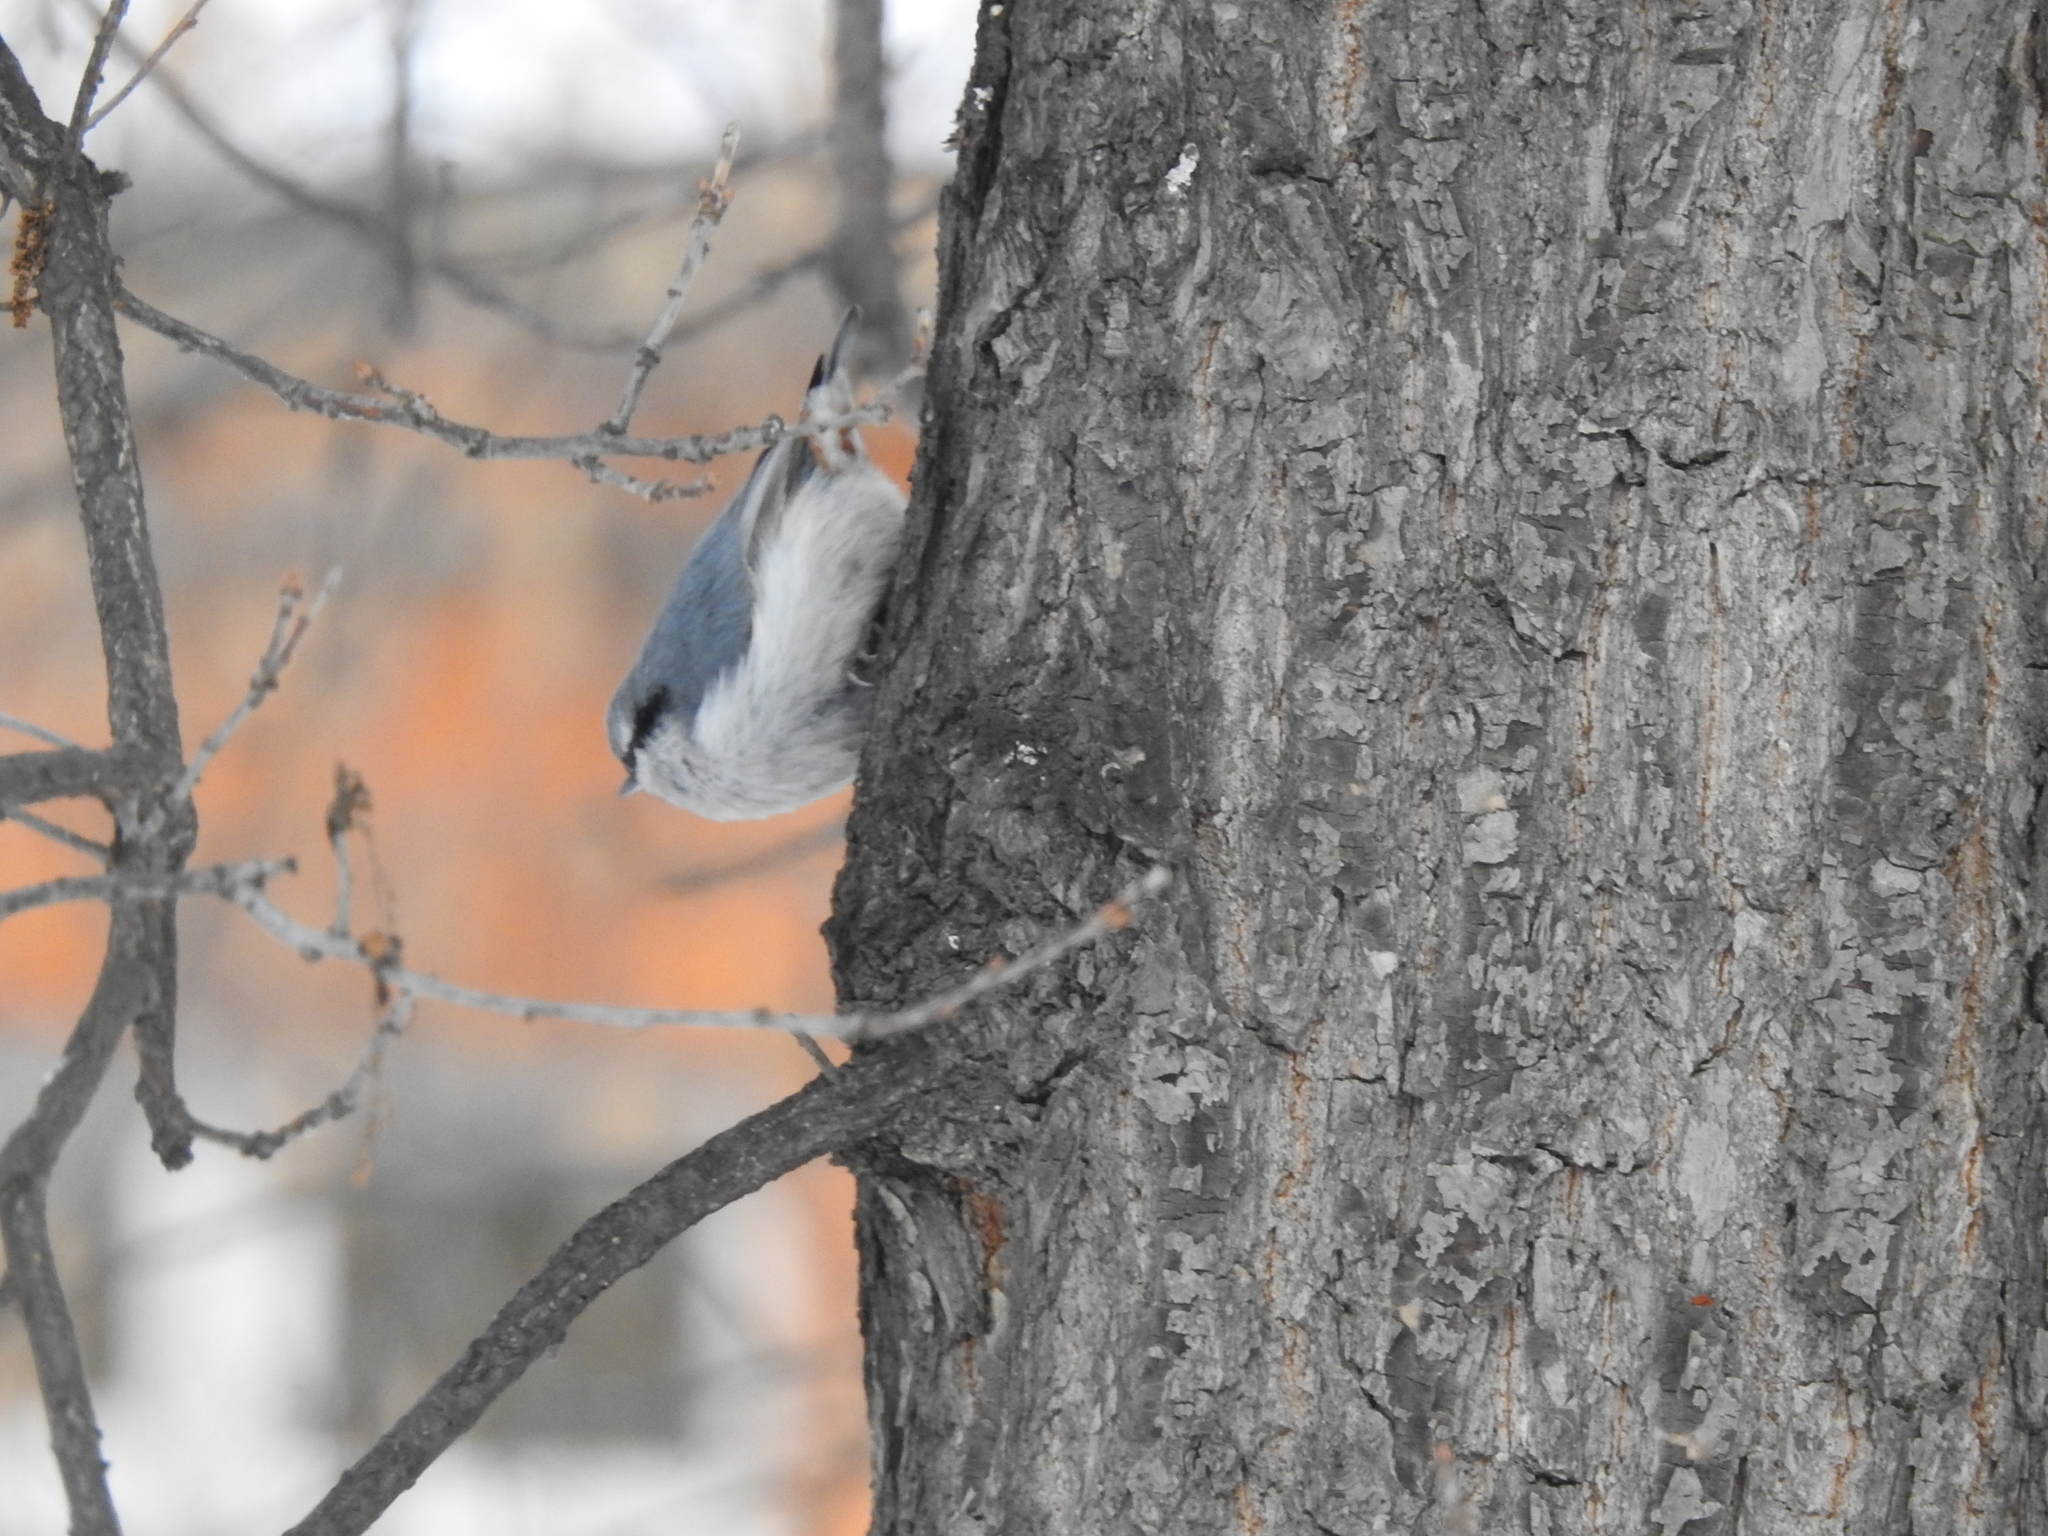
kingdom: Animalia
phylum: Chordata
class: Aves
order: Passeriformes
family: Sittidae
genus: Sitta
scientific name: Sitta europaea
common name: Eurasian nuthatch
